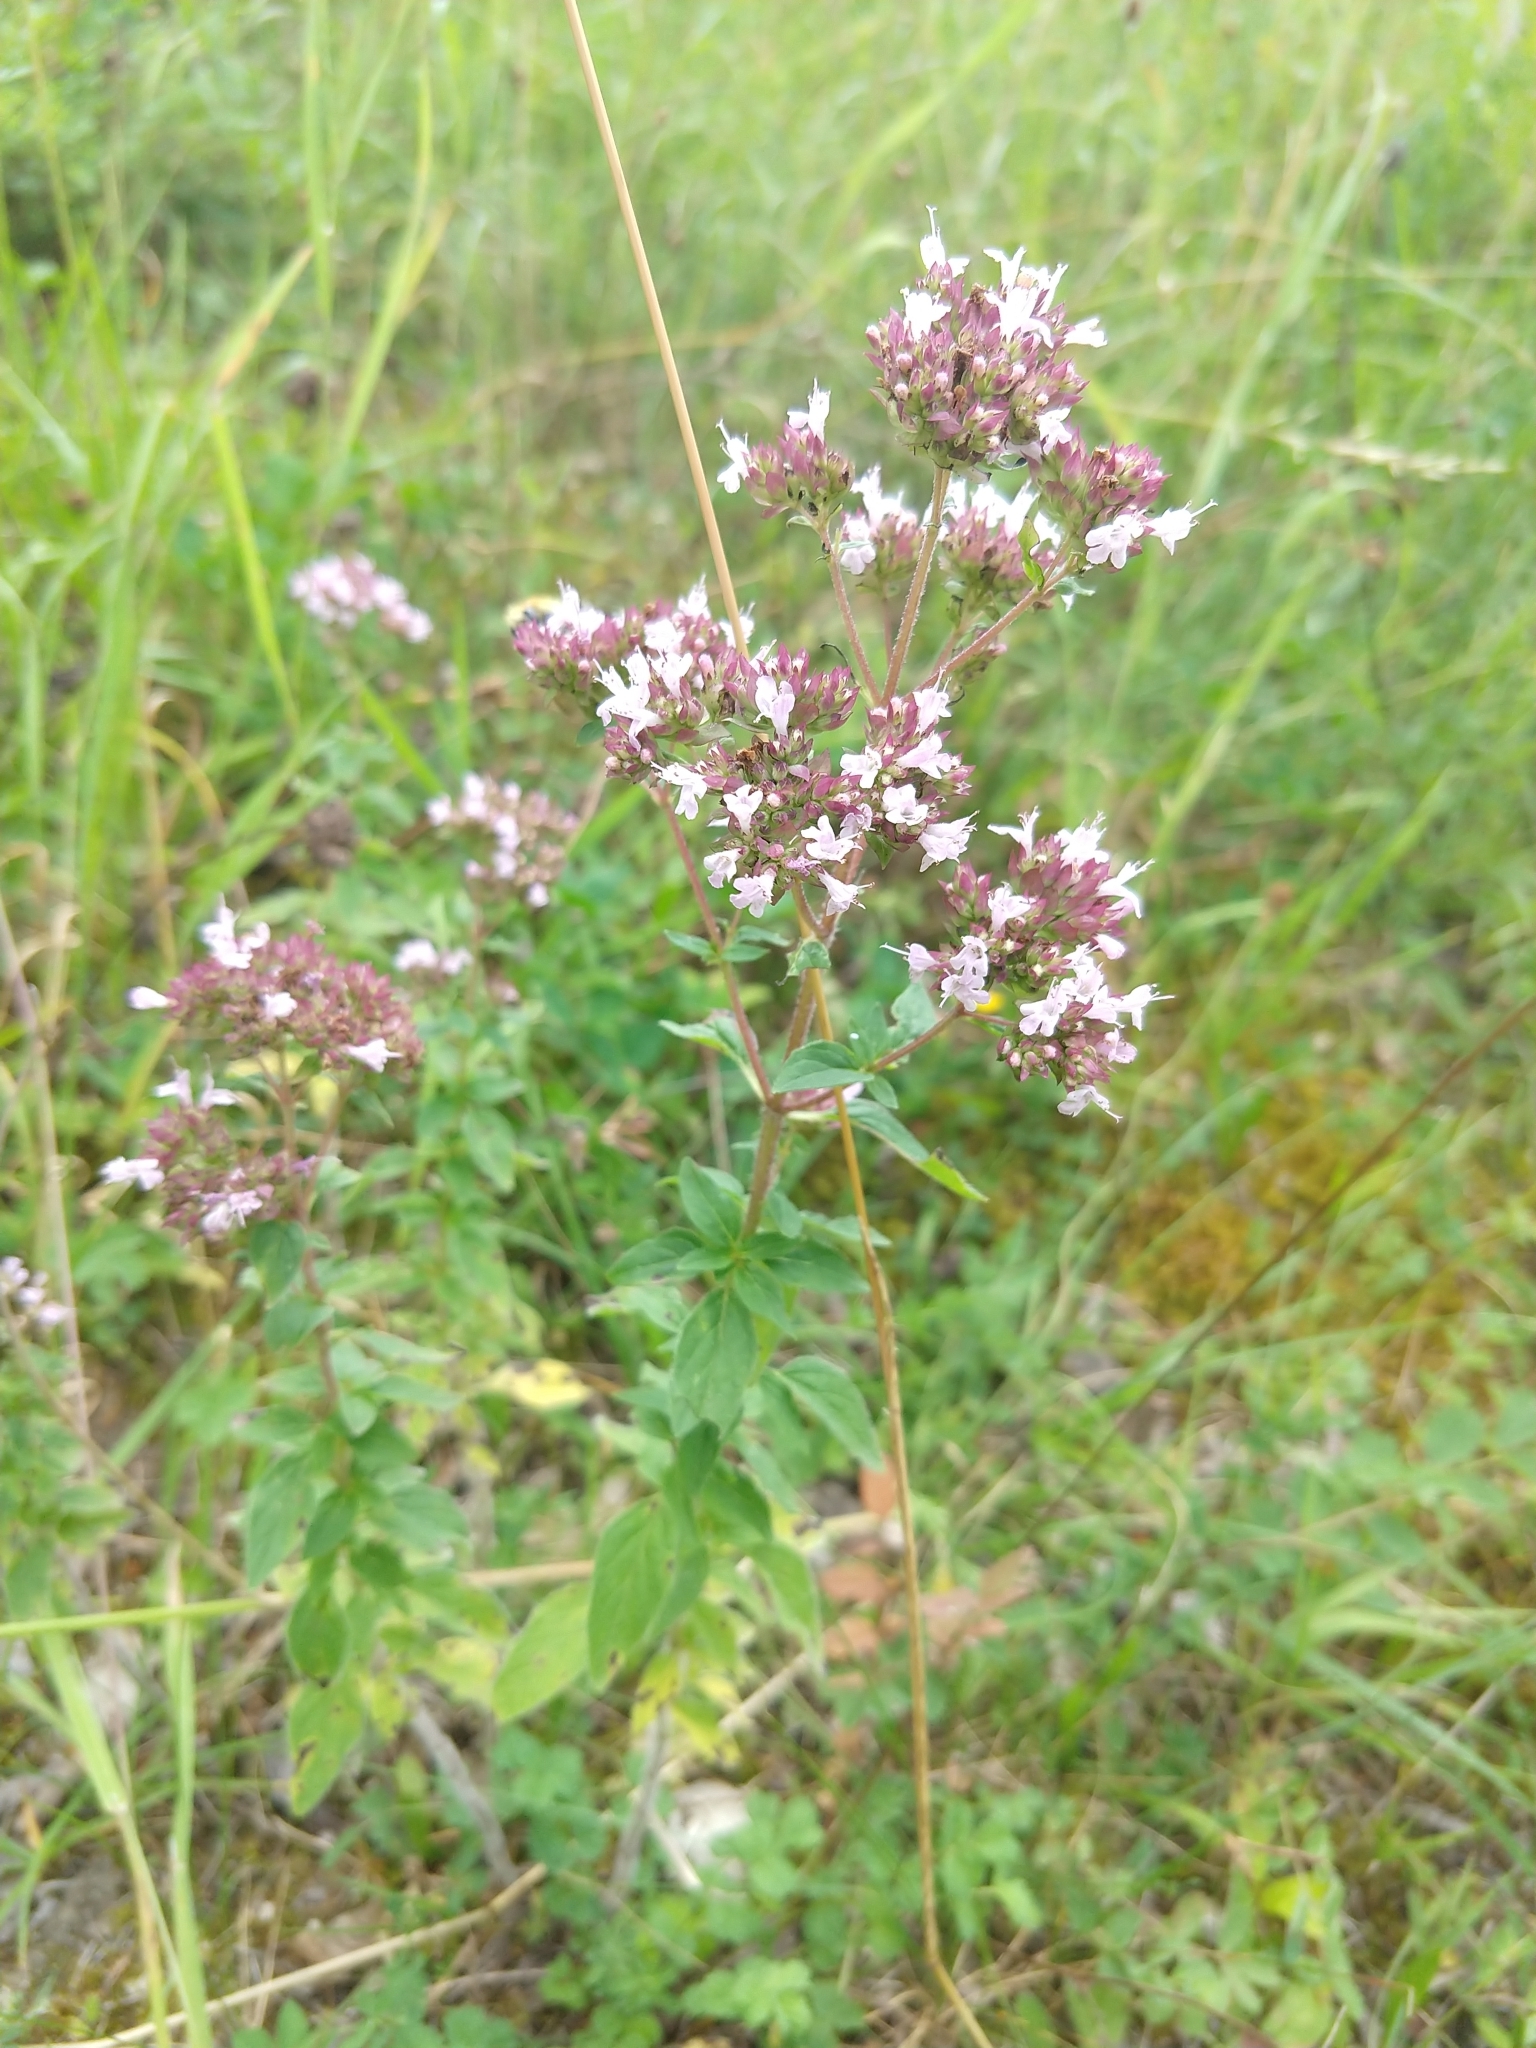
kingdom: Plantae
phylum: Tracheophyta
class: Magnoliopsida
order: Lamiales
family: Lamiaceae
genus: Origanum
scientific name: Origanum vulgare
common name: Wild marjoram
